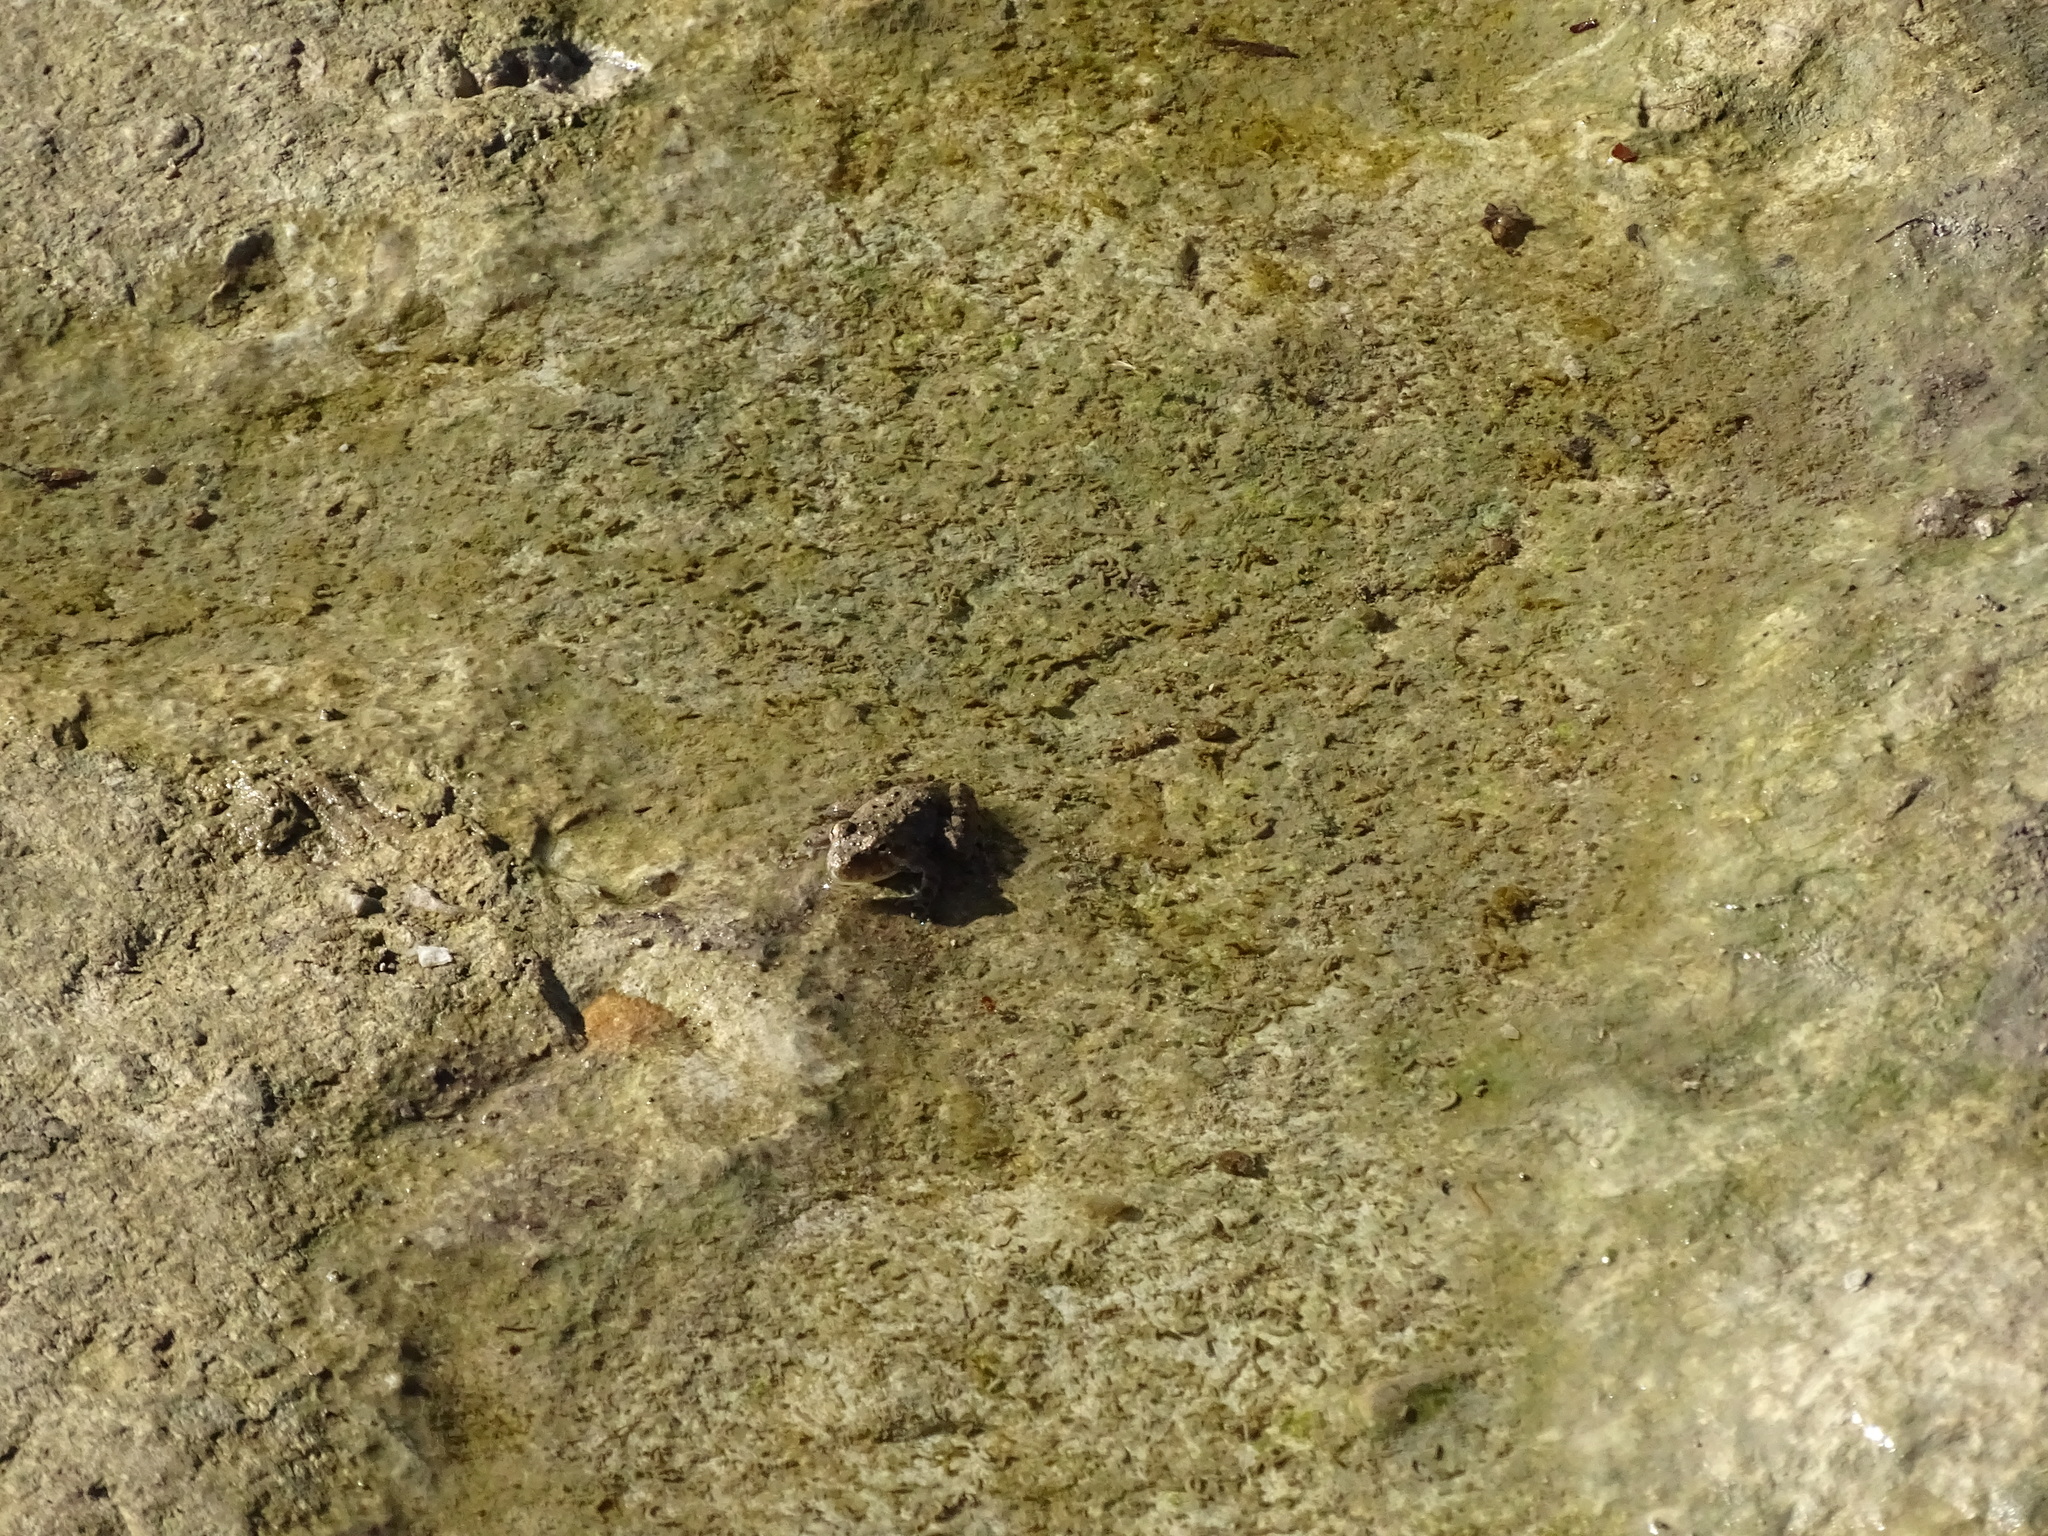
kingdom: Animalia
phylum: Chordata
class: Amphibia
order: Anura
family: Hylidae
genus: Acris
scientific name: Acris blanchardi
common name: Blanchard's cricket frog
